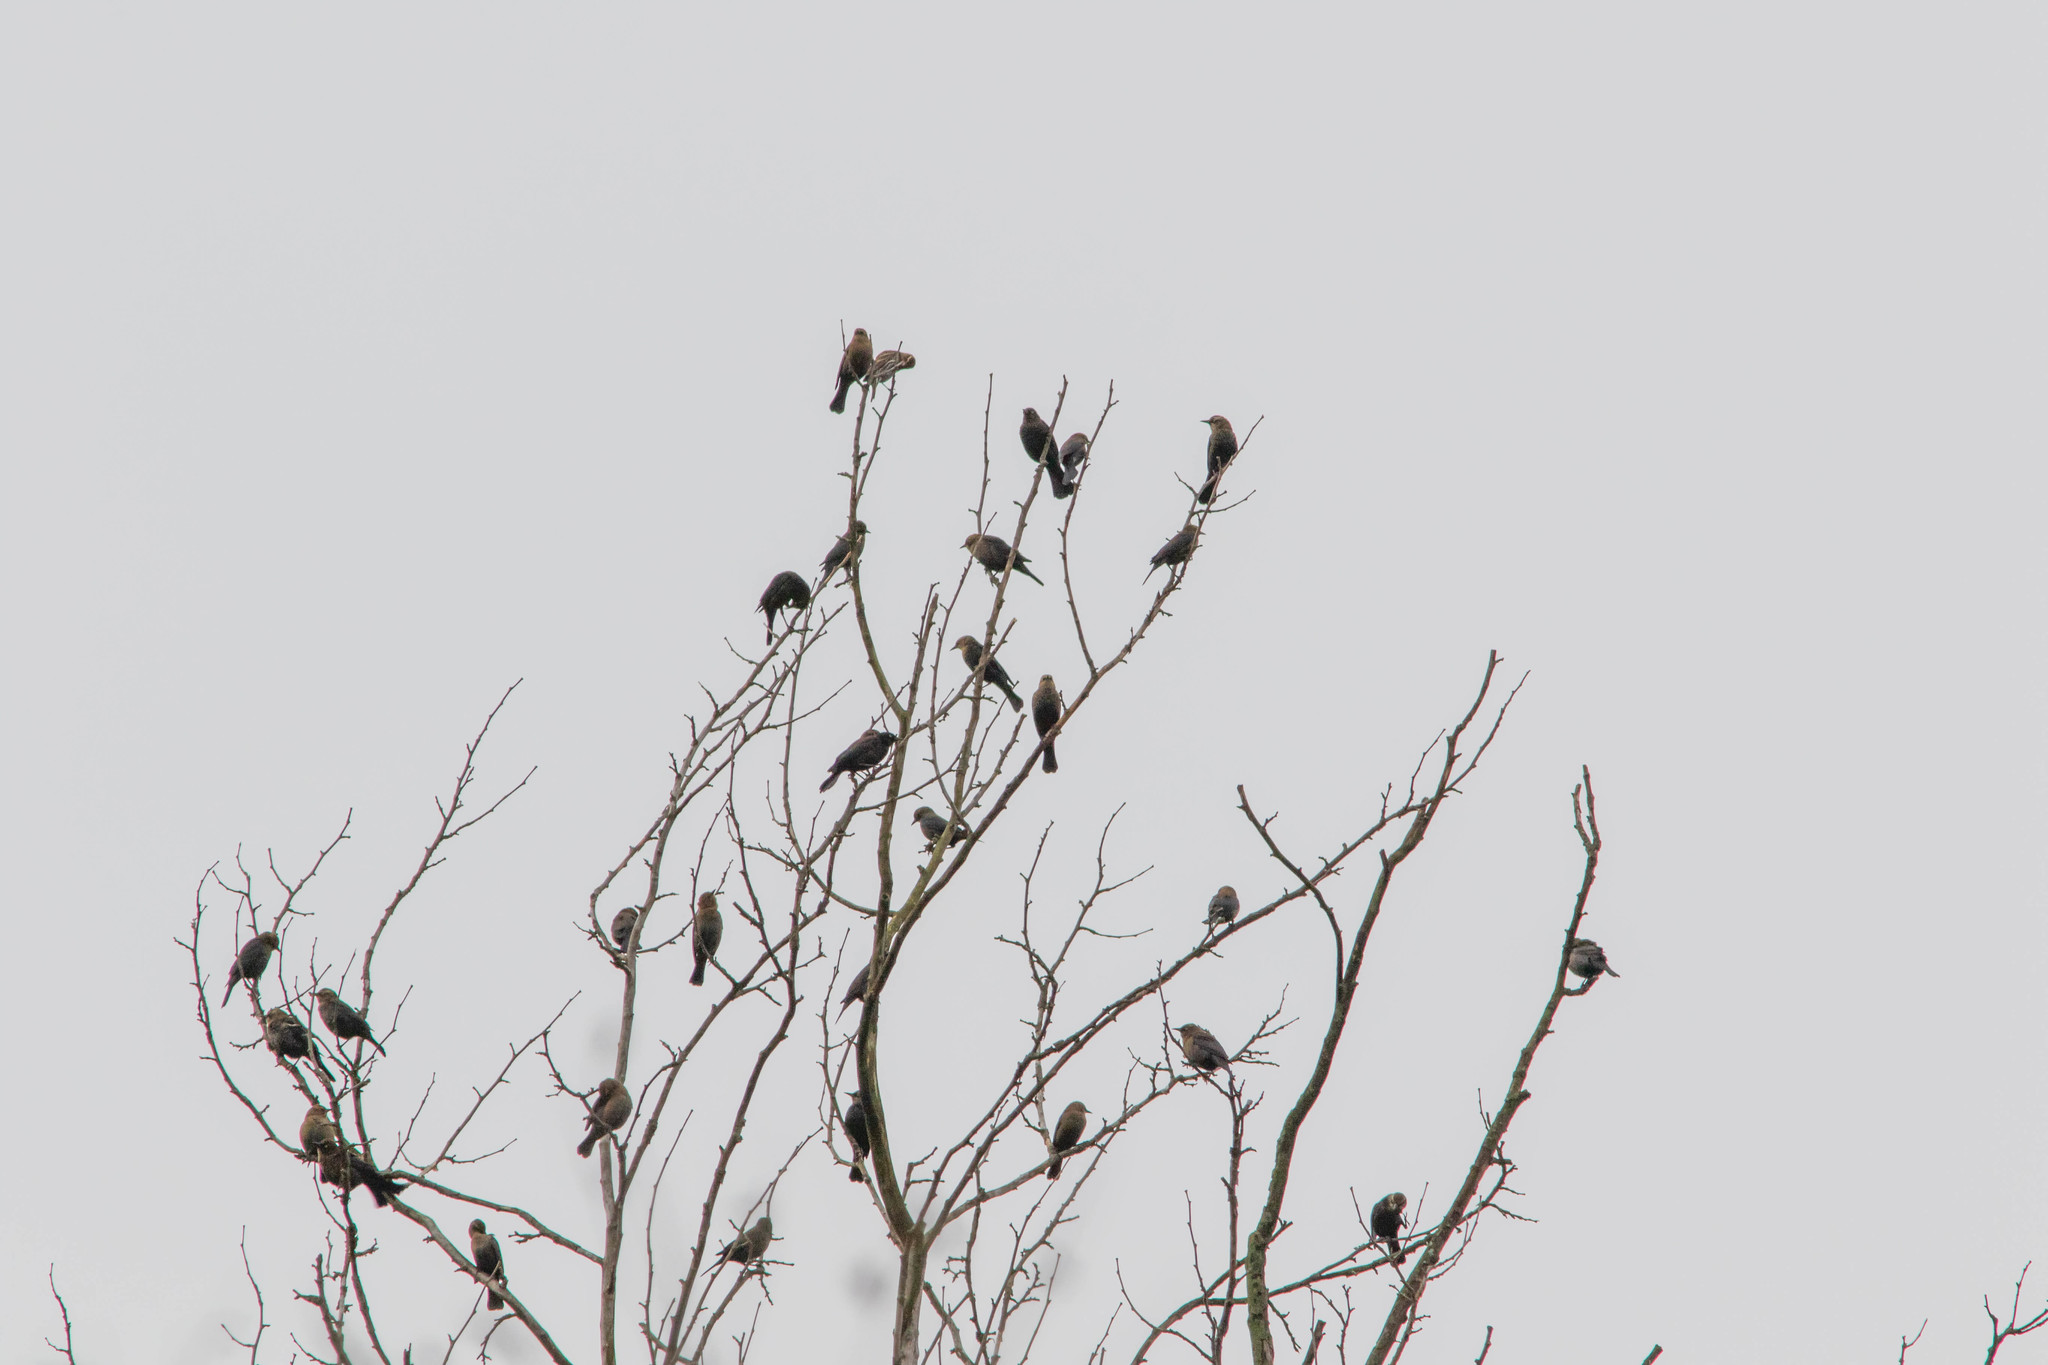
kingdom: Animalia
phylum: Chordata
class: Aves
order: Passeriformes
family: Icteridae
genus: Euphagus
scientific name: Euphagus carolinus
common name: Rusty blackbird
